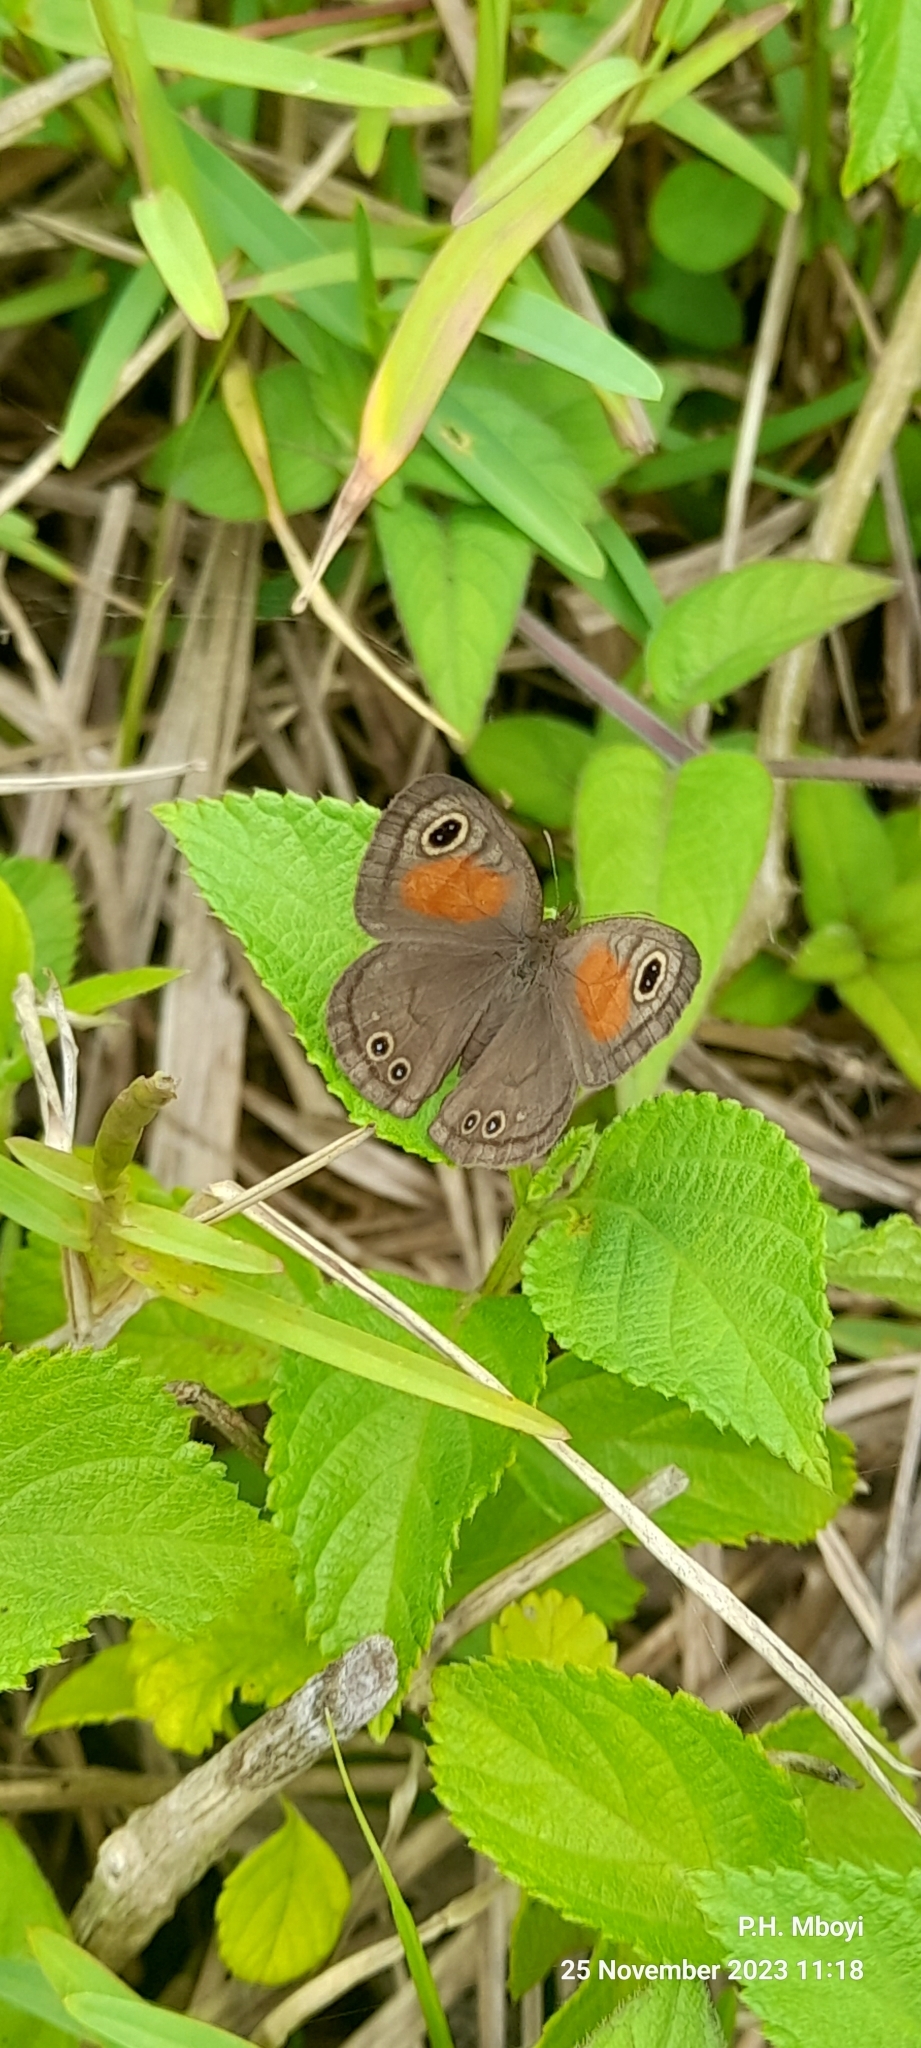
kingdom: Animalia
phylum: Arthropoda
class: Insecta
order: Lepidoptera
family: Nymphalidae
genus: Cassionympha
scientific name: Cassionympha cassius
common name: Rainforest brown
